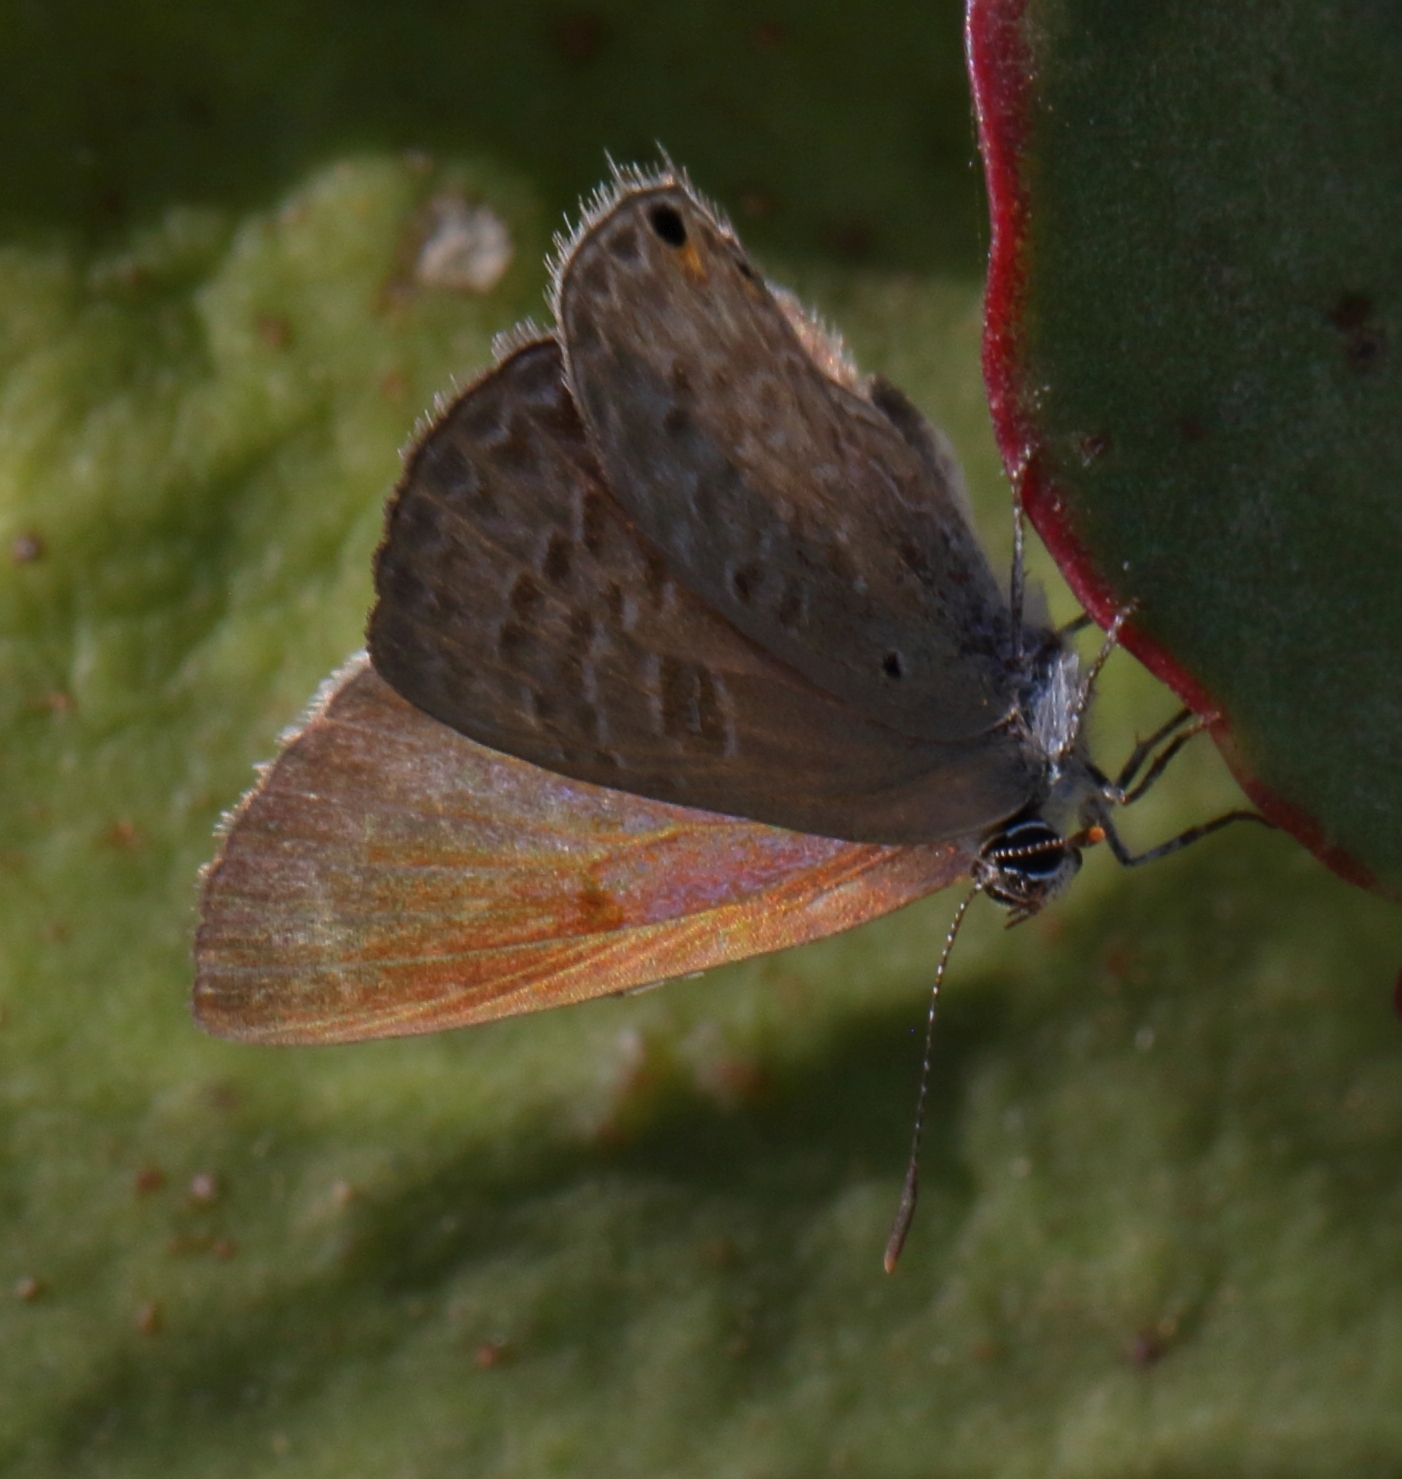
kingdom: Animalia
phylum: Arthropoda
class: Insecta
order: Lepidoptera
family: Lycaenidae
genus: Anthene
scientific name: Anthene livida
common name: Pale hairtail
